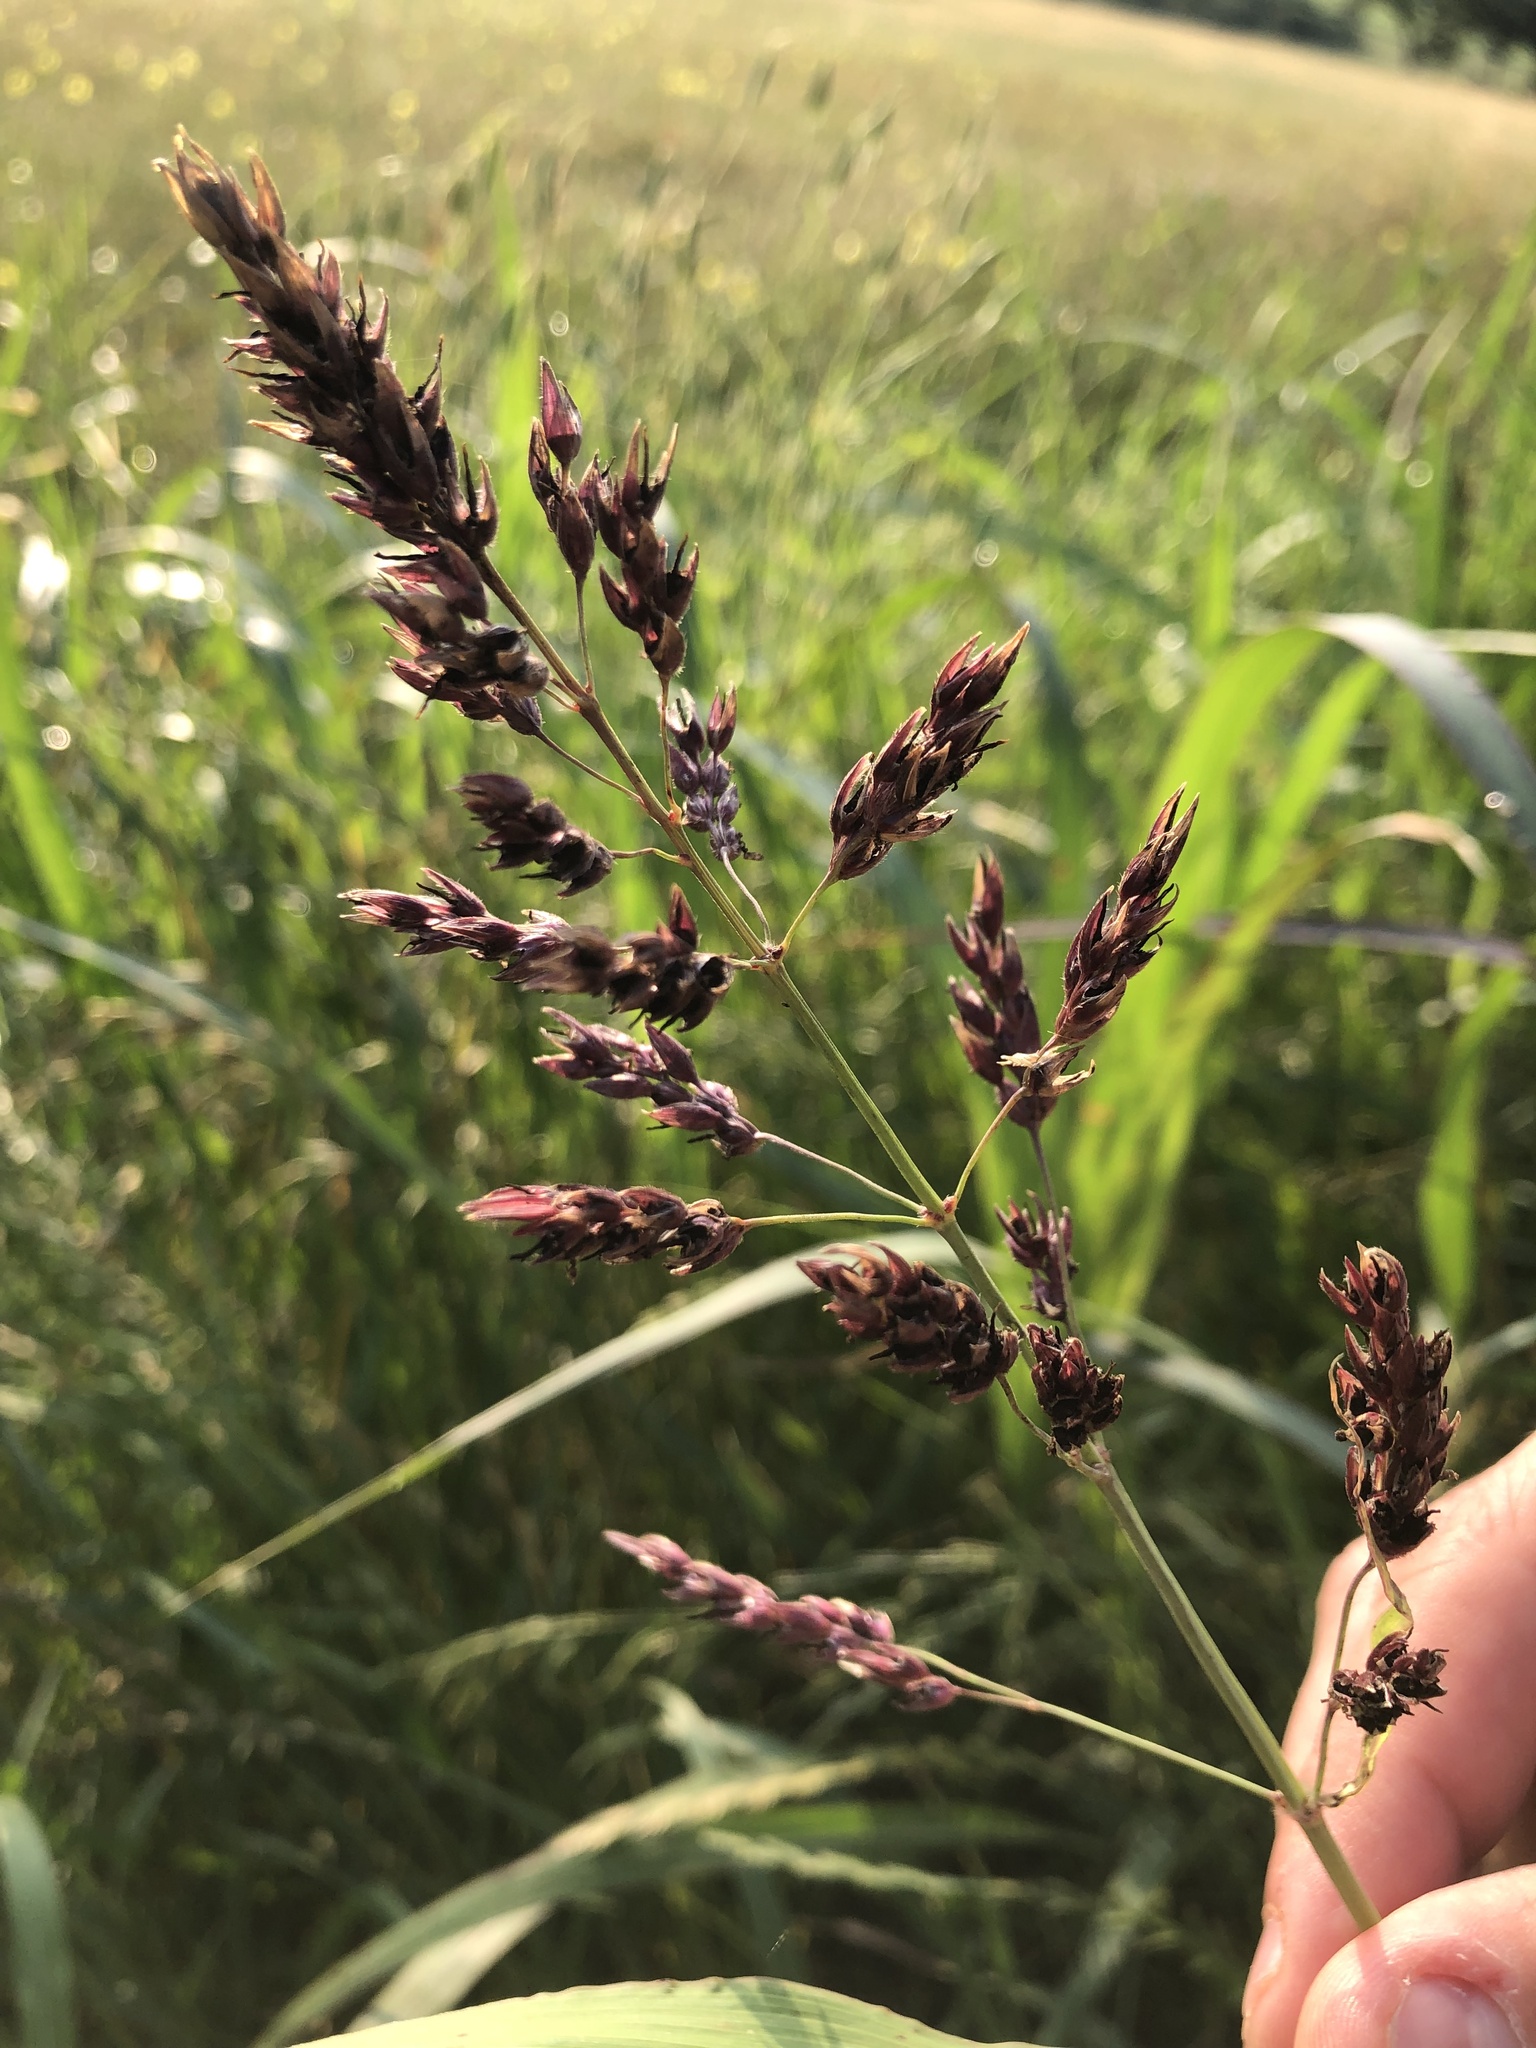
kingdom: Plantae
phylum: Tracheophyta
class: Liliopsida
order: Poales
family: Poaceae
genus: Sorghum
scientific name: Sorghum halepense
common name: Johnson-grass
